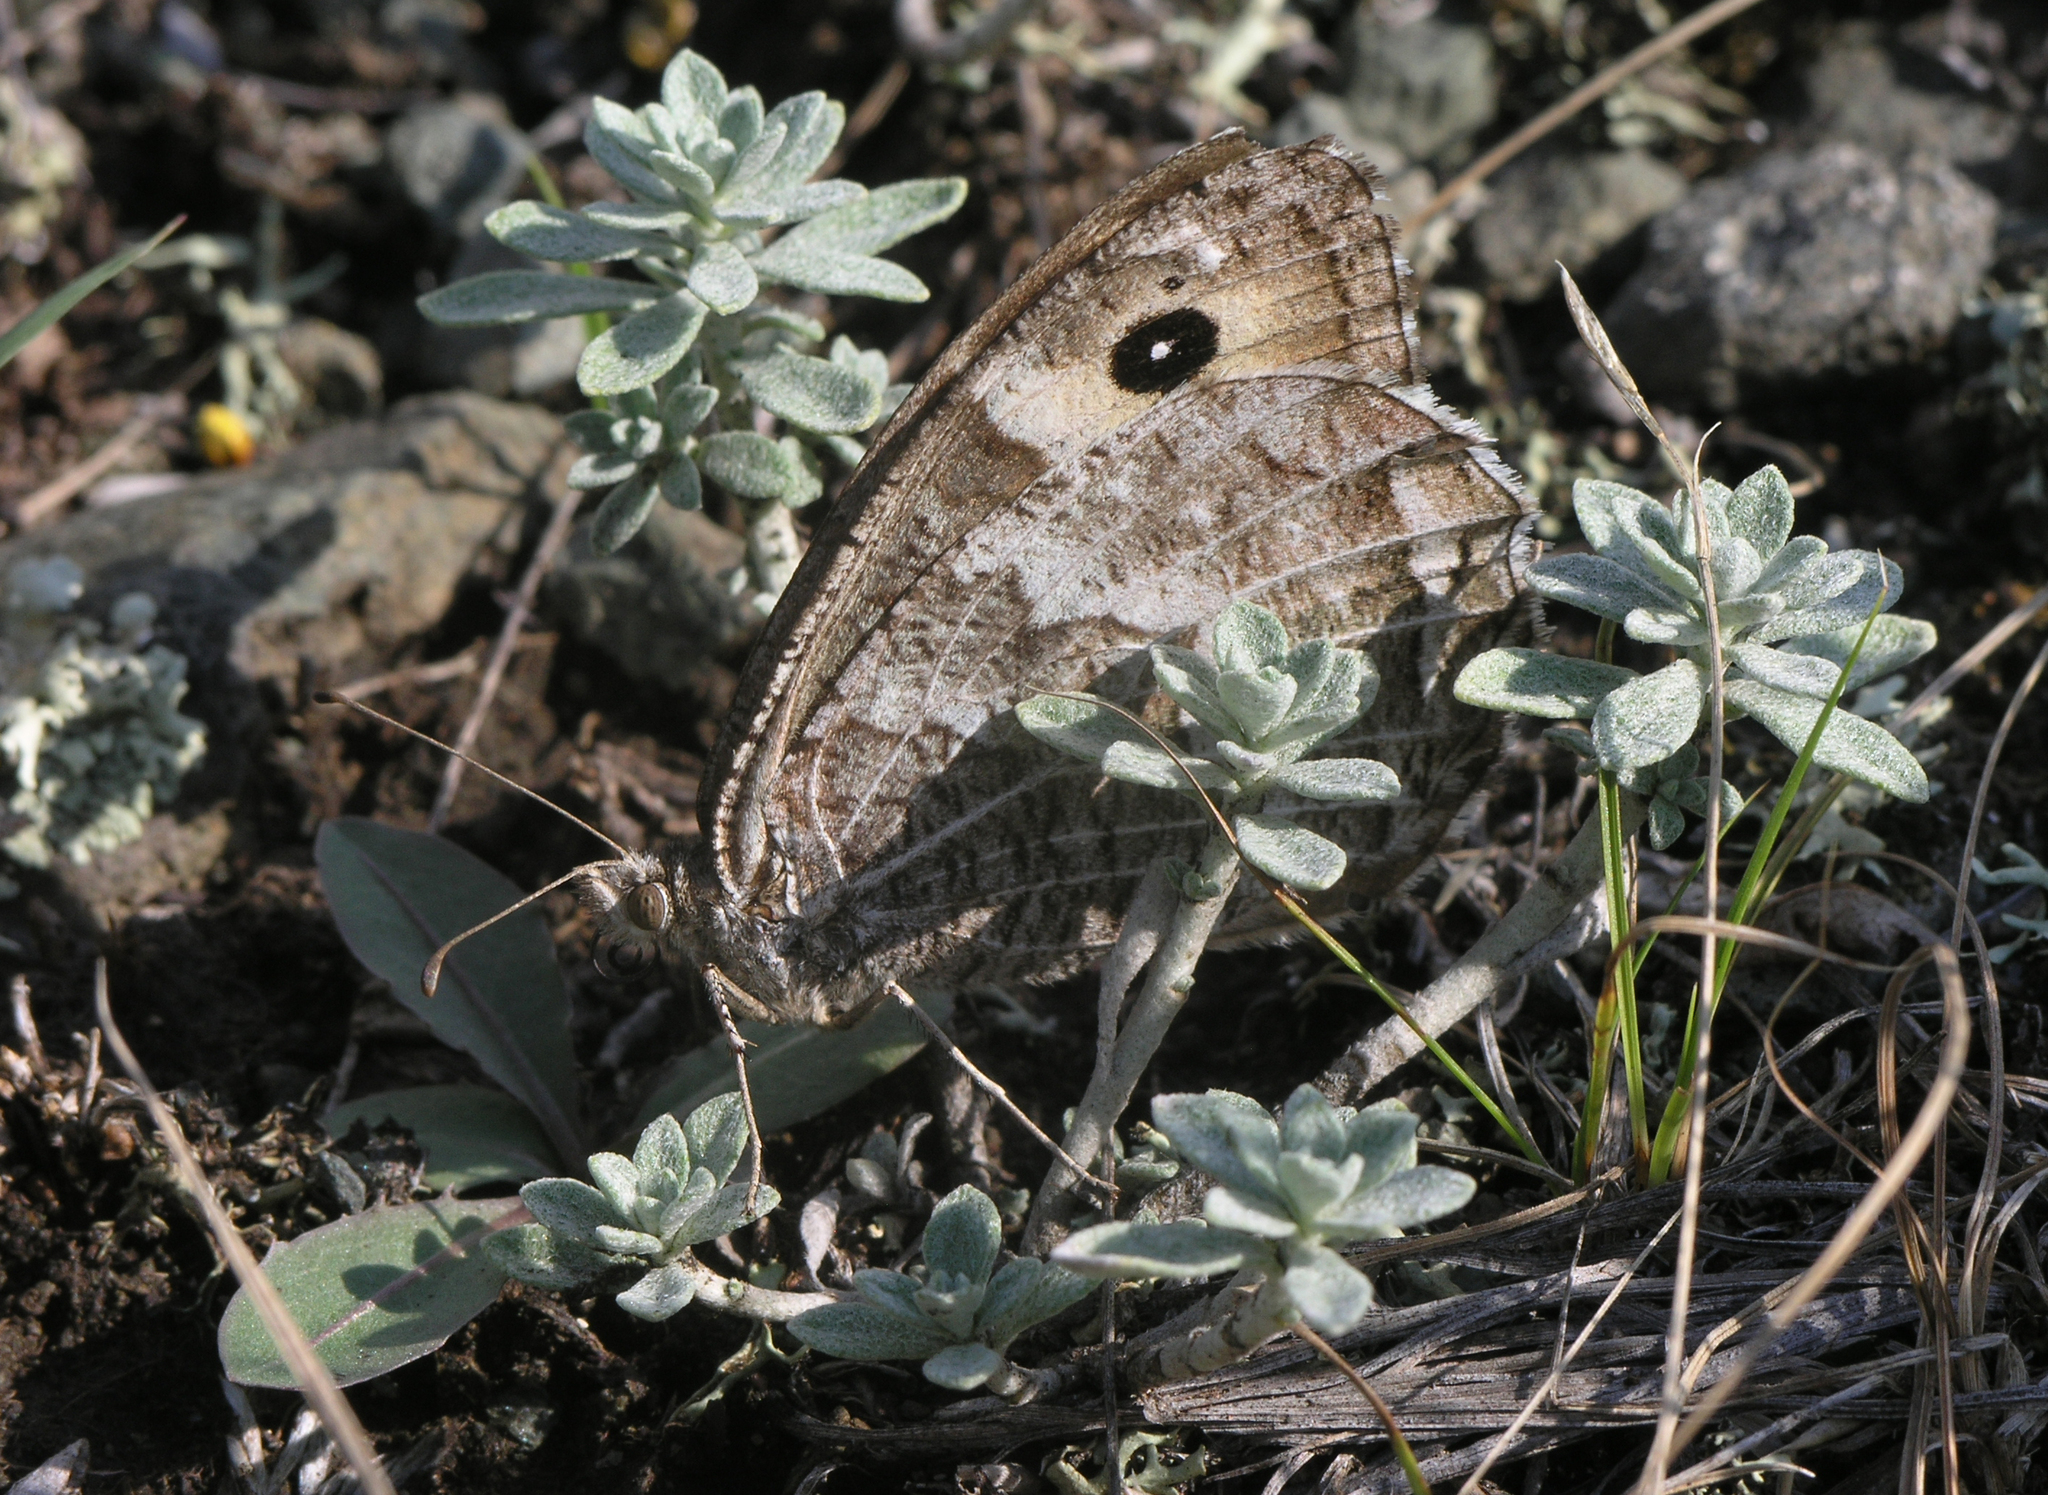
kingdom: Plantae
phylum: Tracheophyta
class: Magnoliopsida
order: Brassicales
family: Brassicaceae
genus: Odontarrhena
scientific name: Odontarrhena obovata
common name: American alyssum
